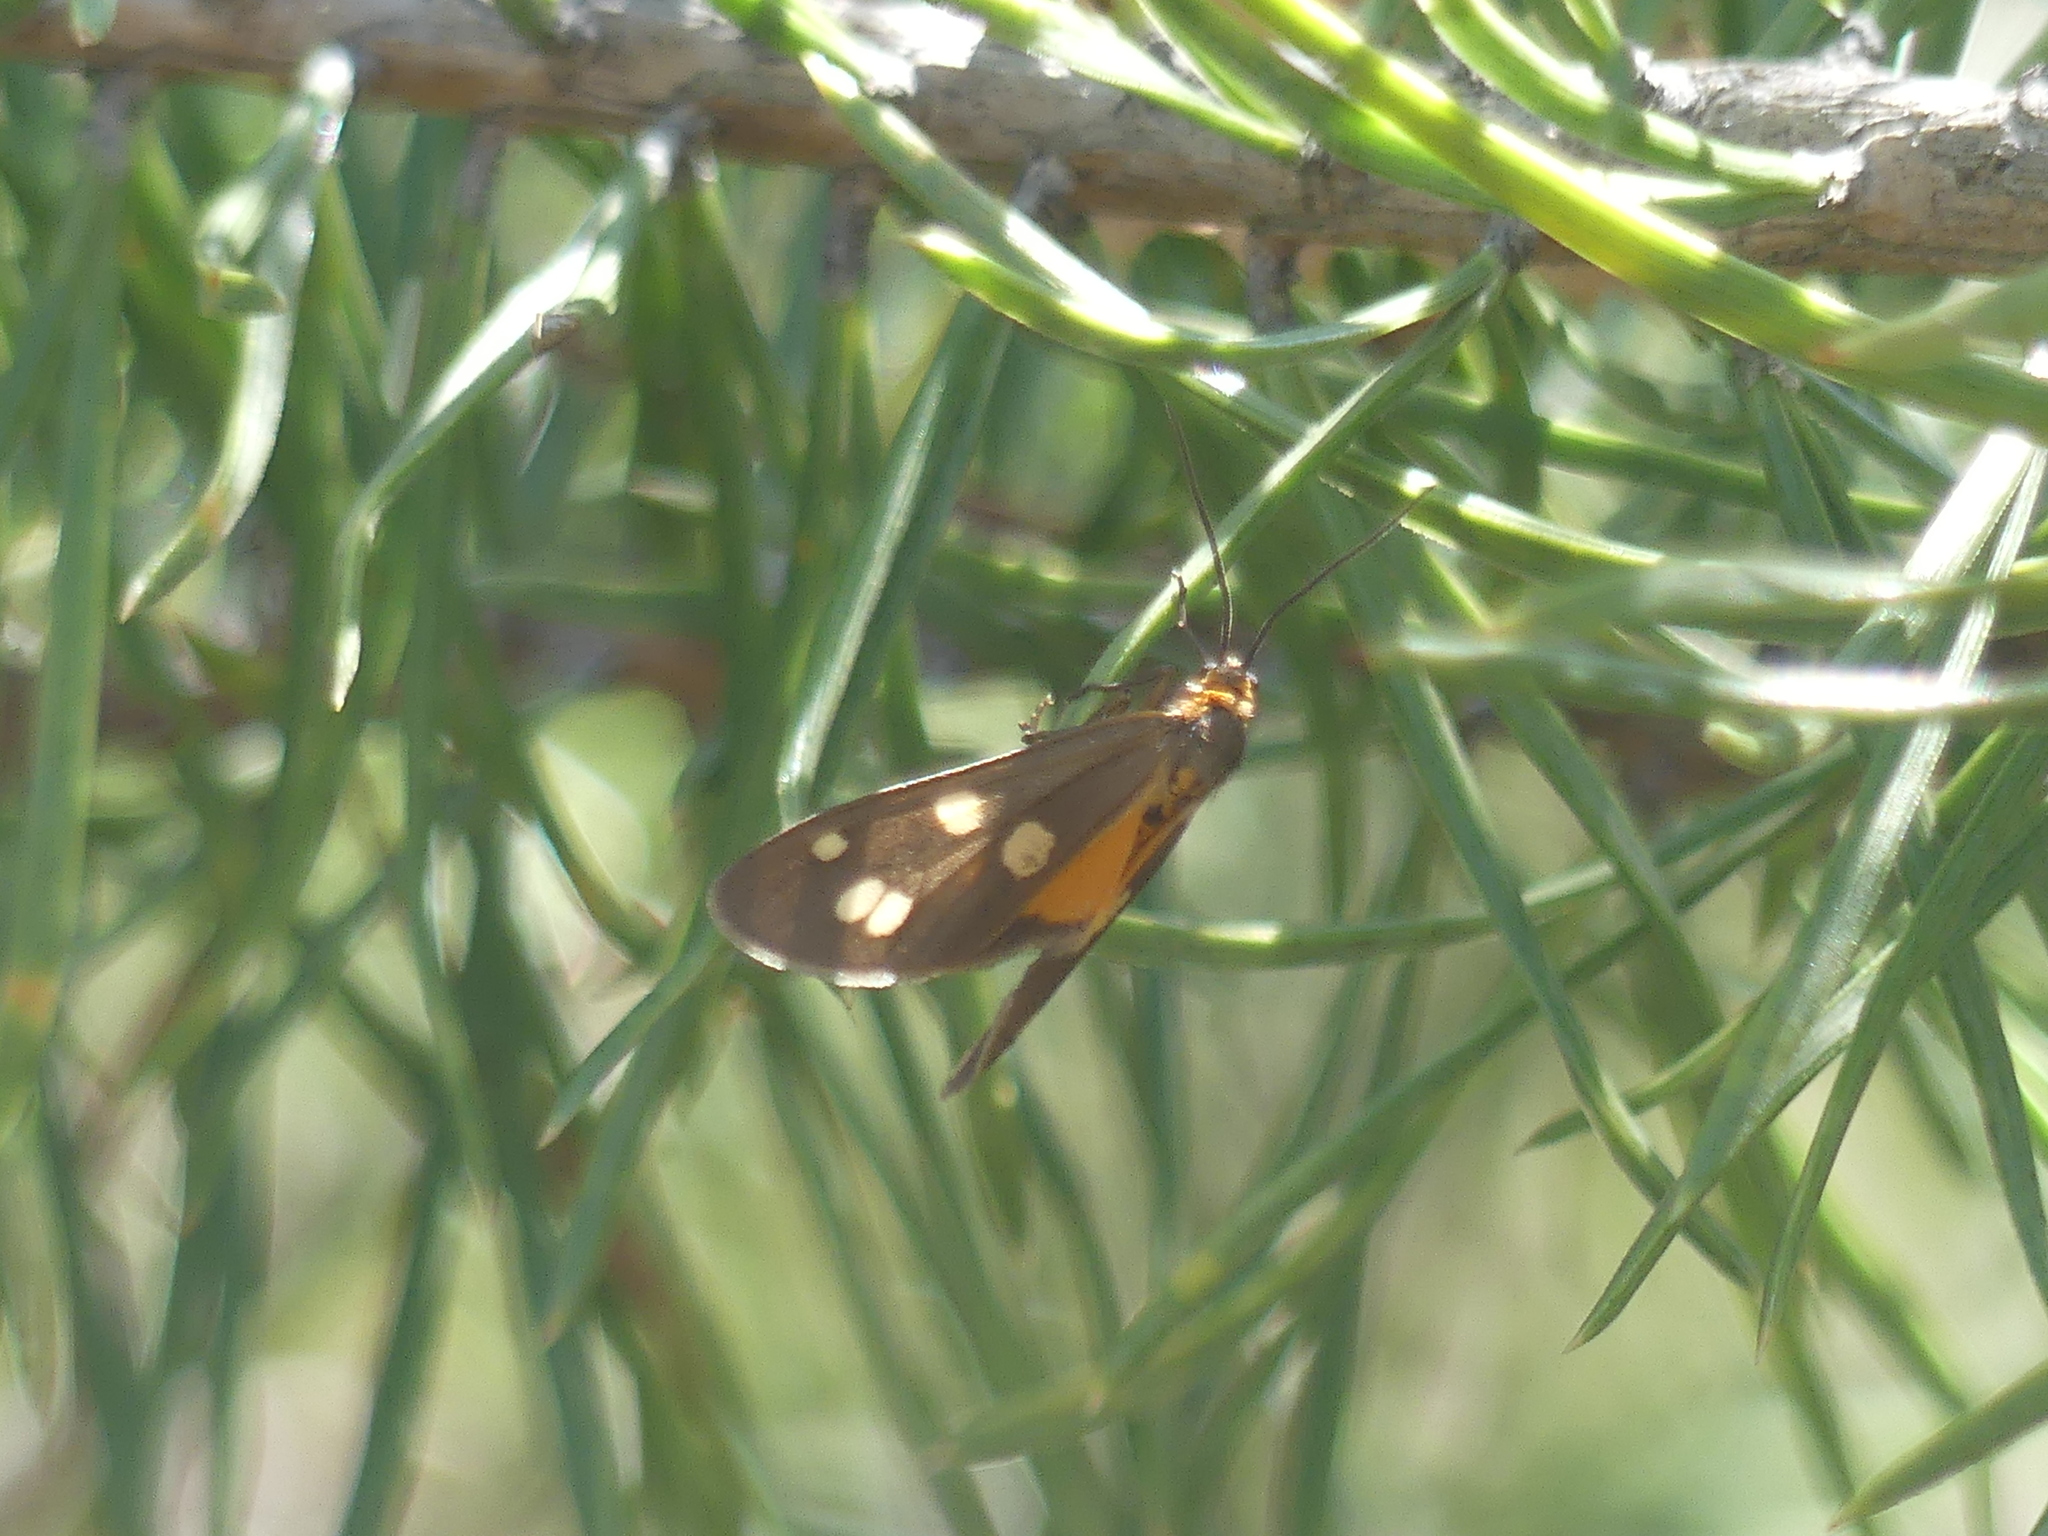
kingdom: Animalia
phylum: Arthropoda
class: Insecta
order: Lepidoptera
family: Erebidae
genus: Dysauxes
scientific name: Dysauxes punctata
